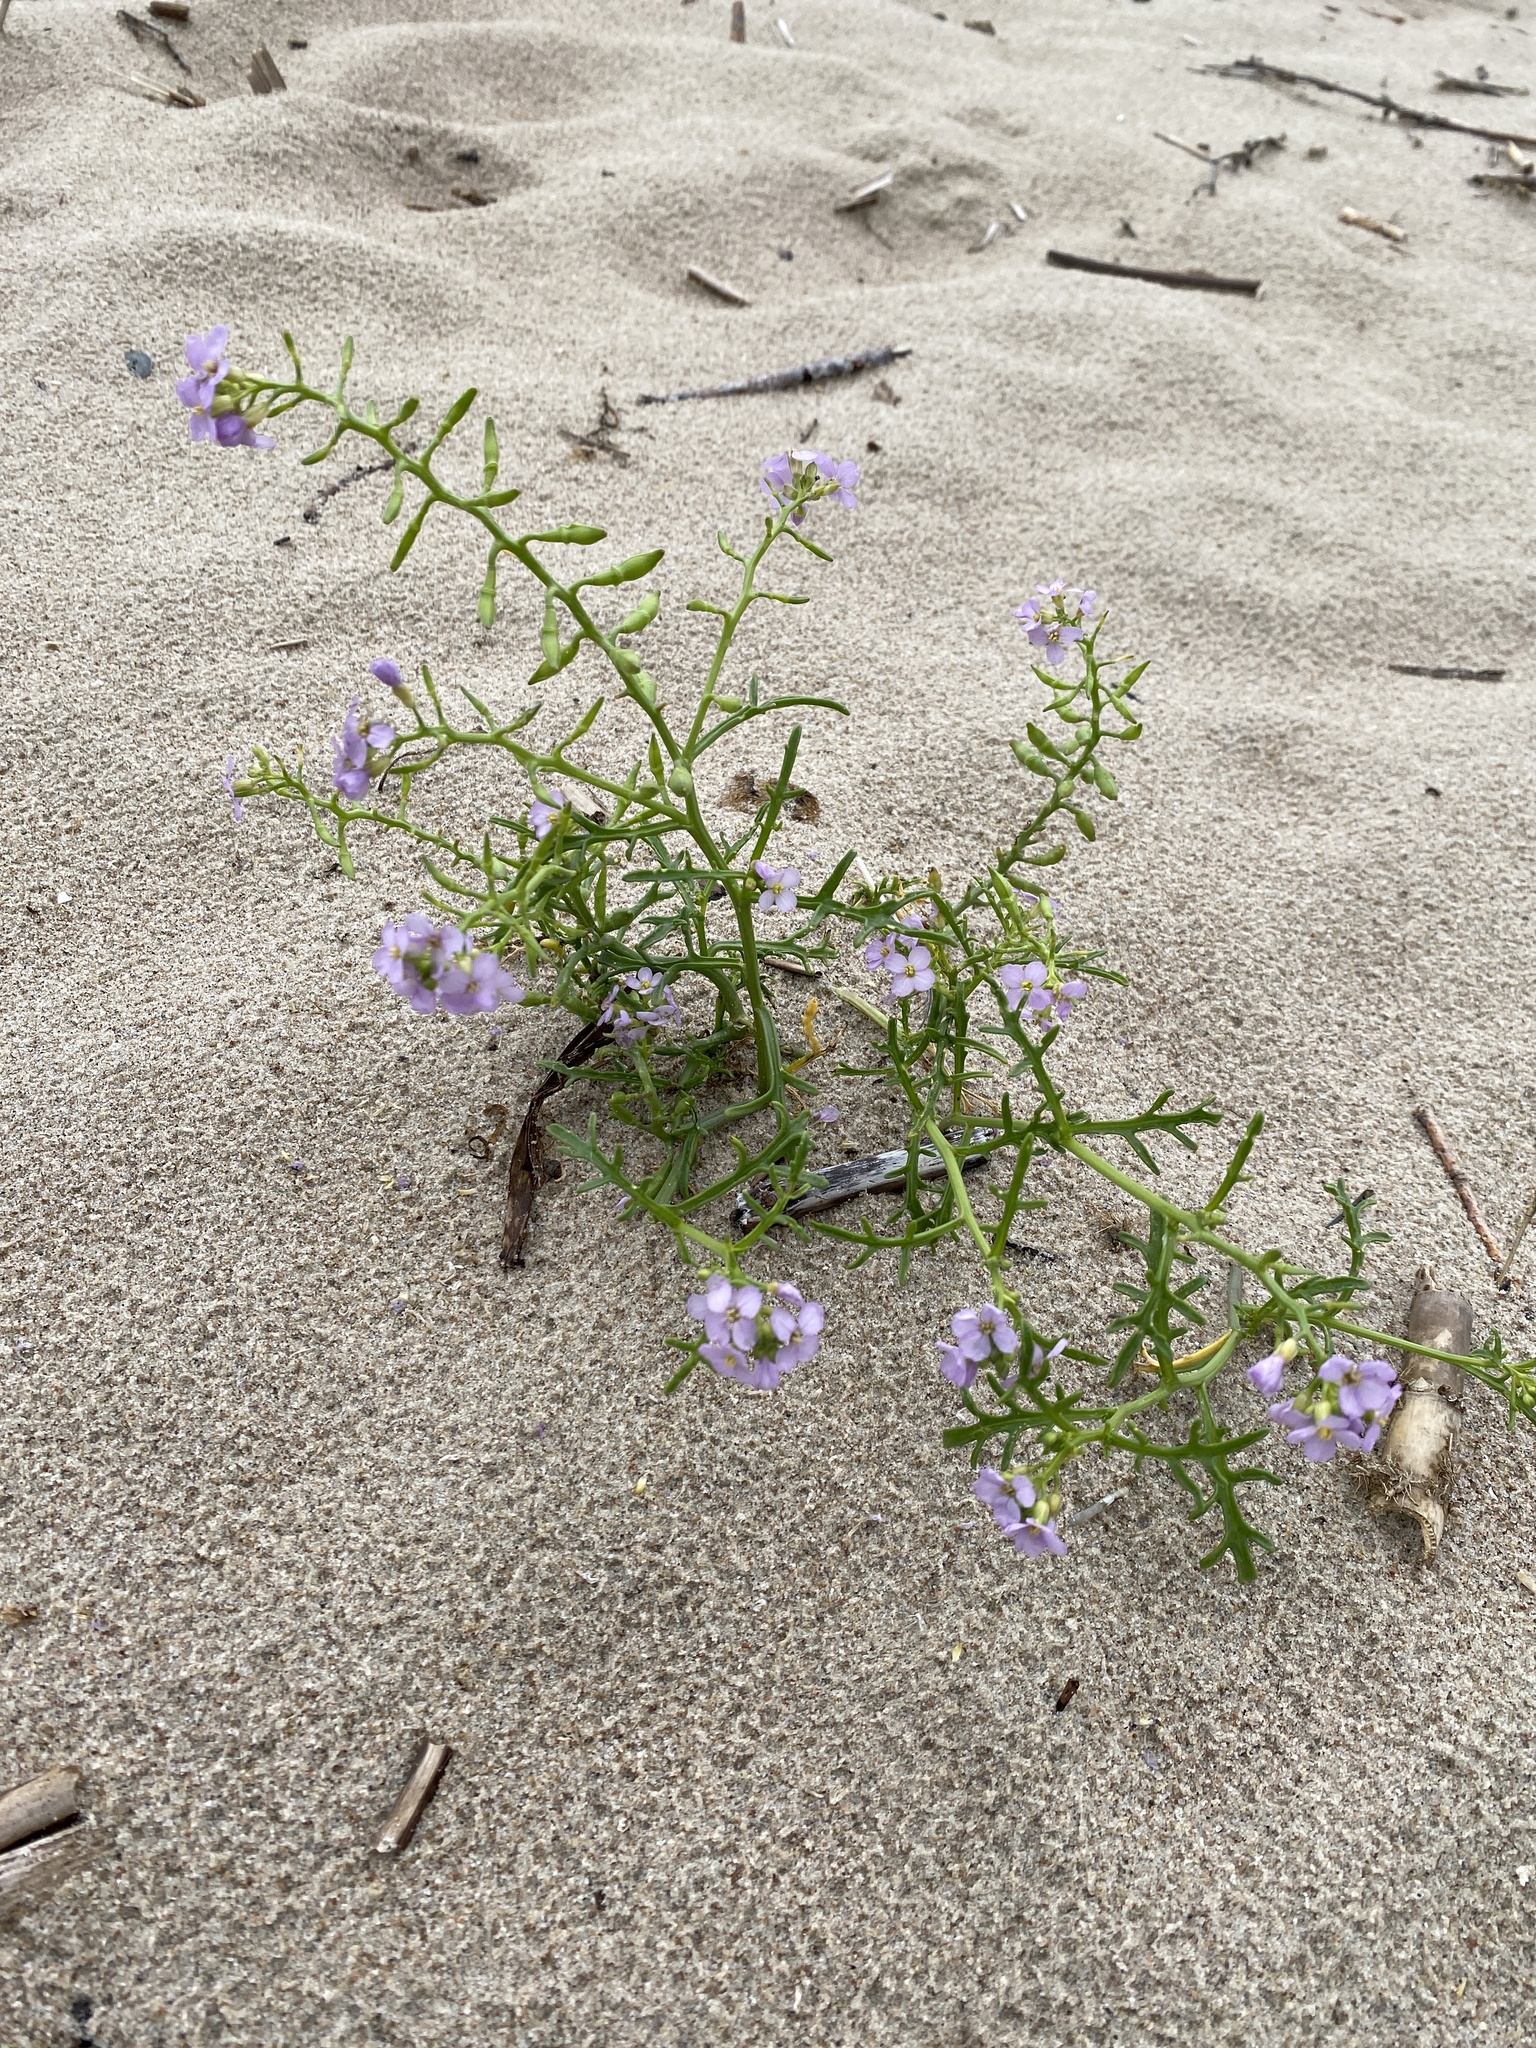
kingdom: Plantae
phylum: Tracheophyta
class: Magnoliopsida
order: Brassicales
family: Brassicaceae
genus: Cakile
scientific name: Cakile maritima
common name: Sea rocket
